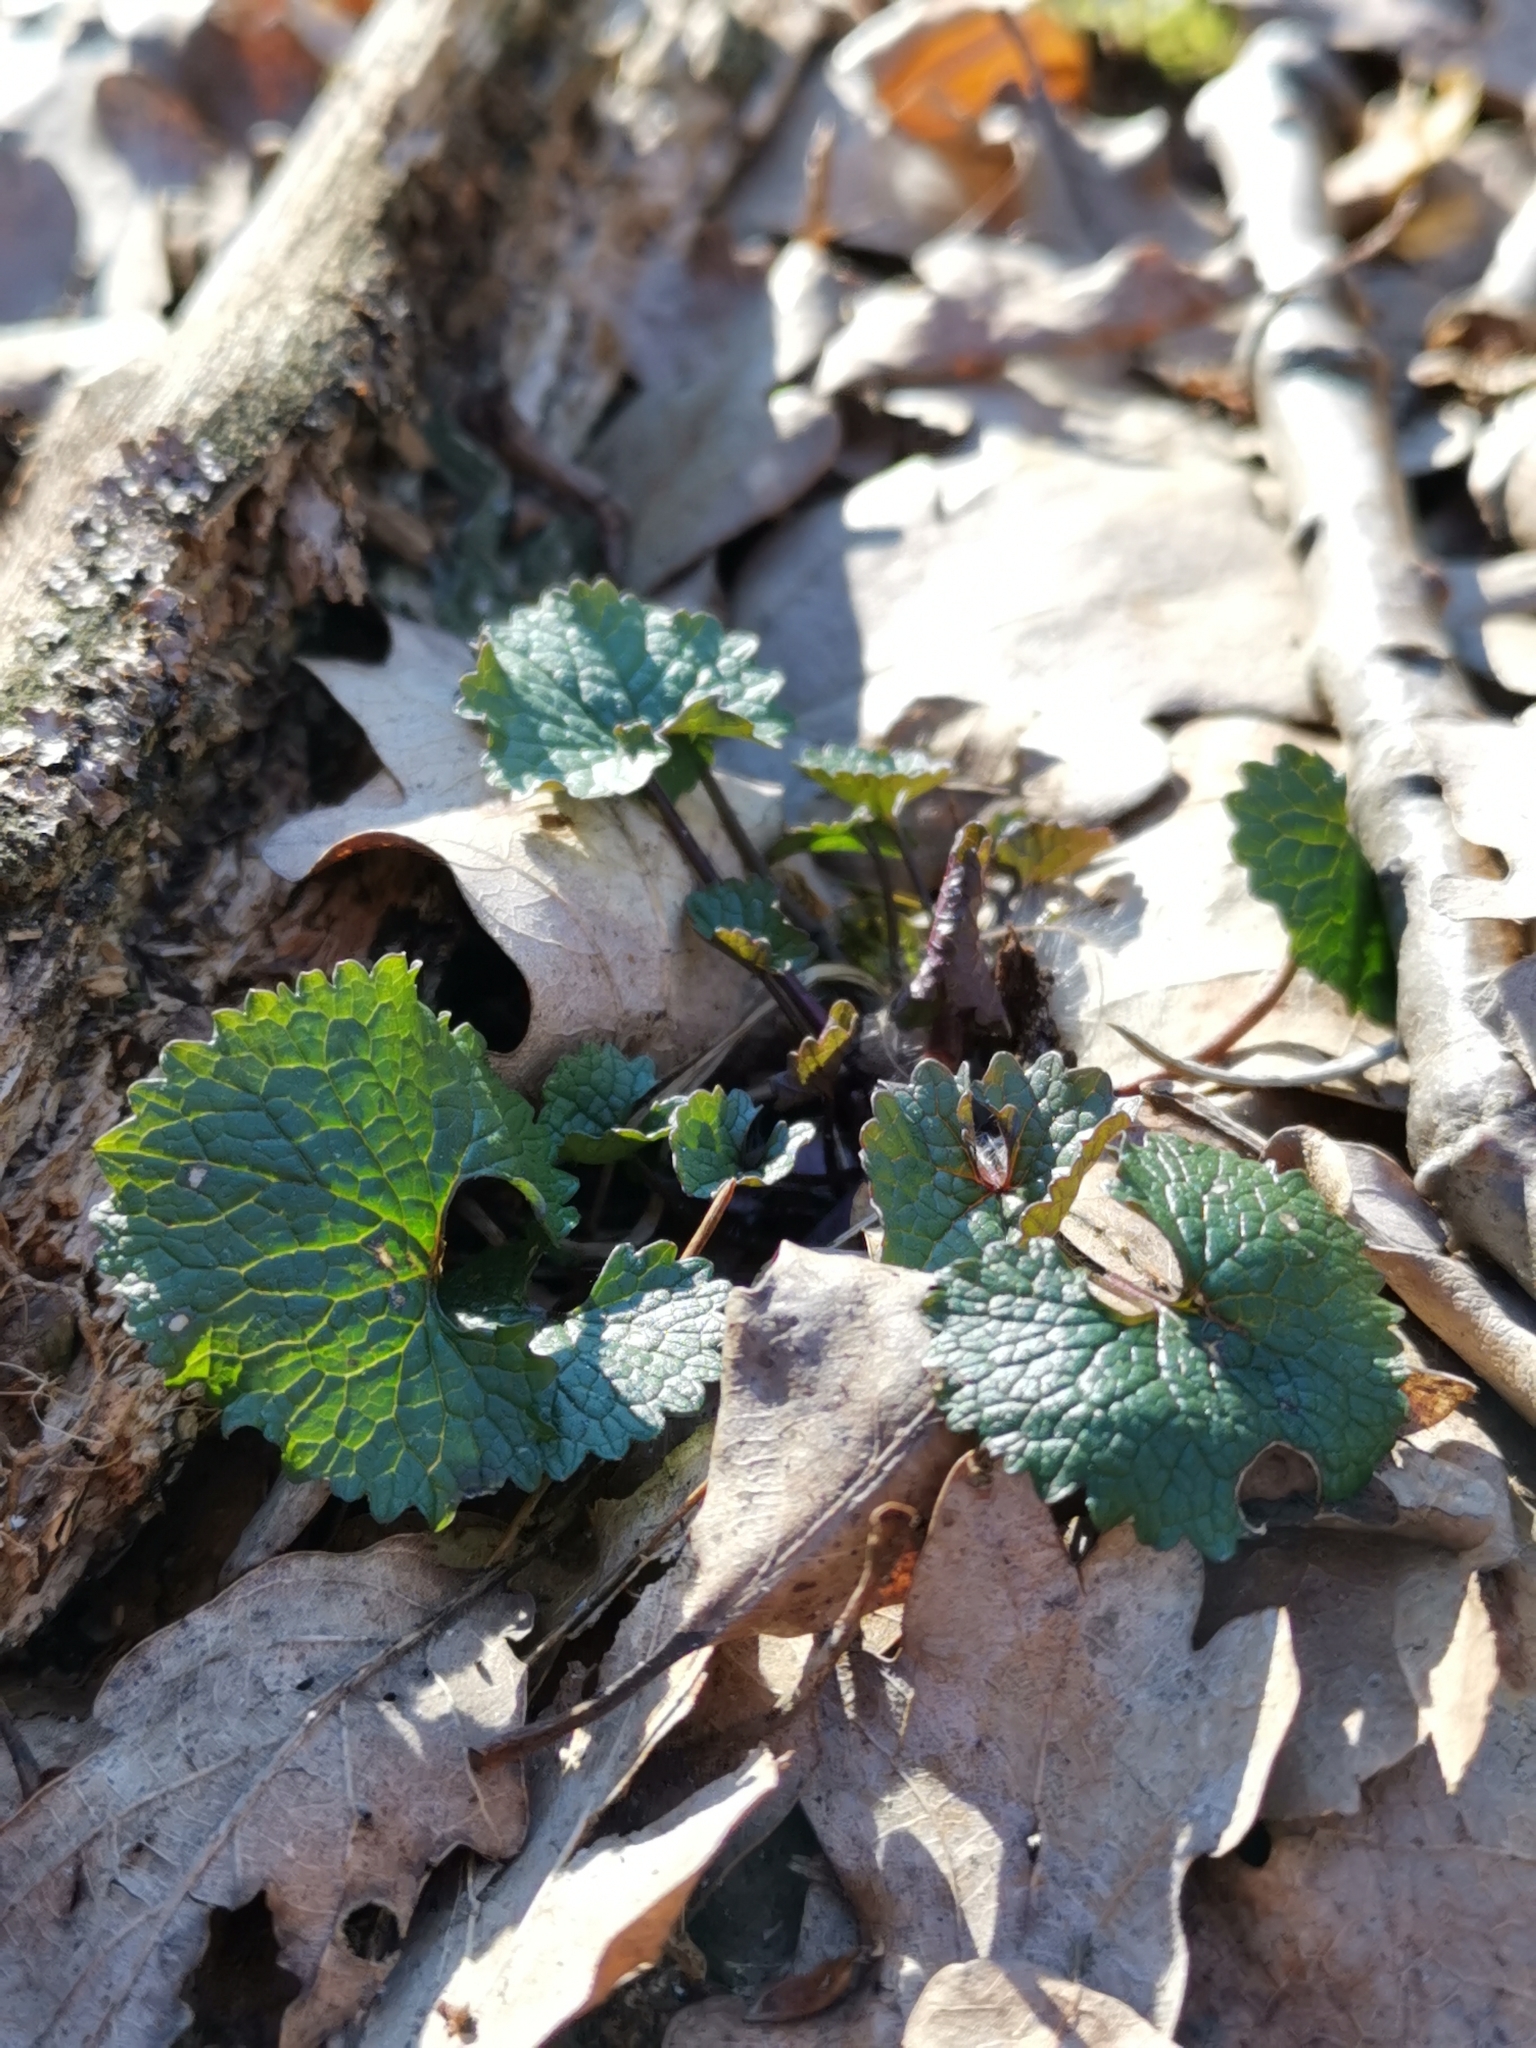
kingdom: Plantae
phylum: Tracheophyta
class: Magnoliopsida
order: Brassicales
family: Brassicaceae
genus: Alliaria
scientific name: Alliaria petiolata
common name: Garlic mustard
